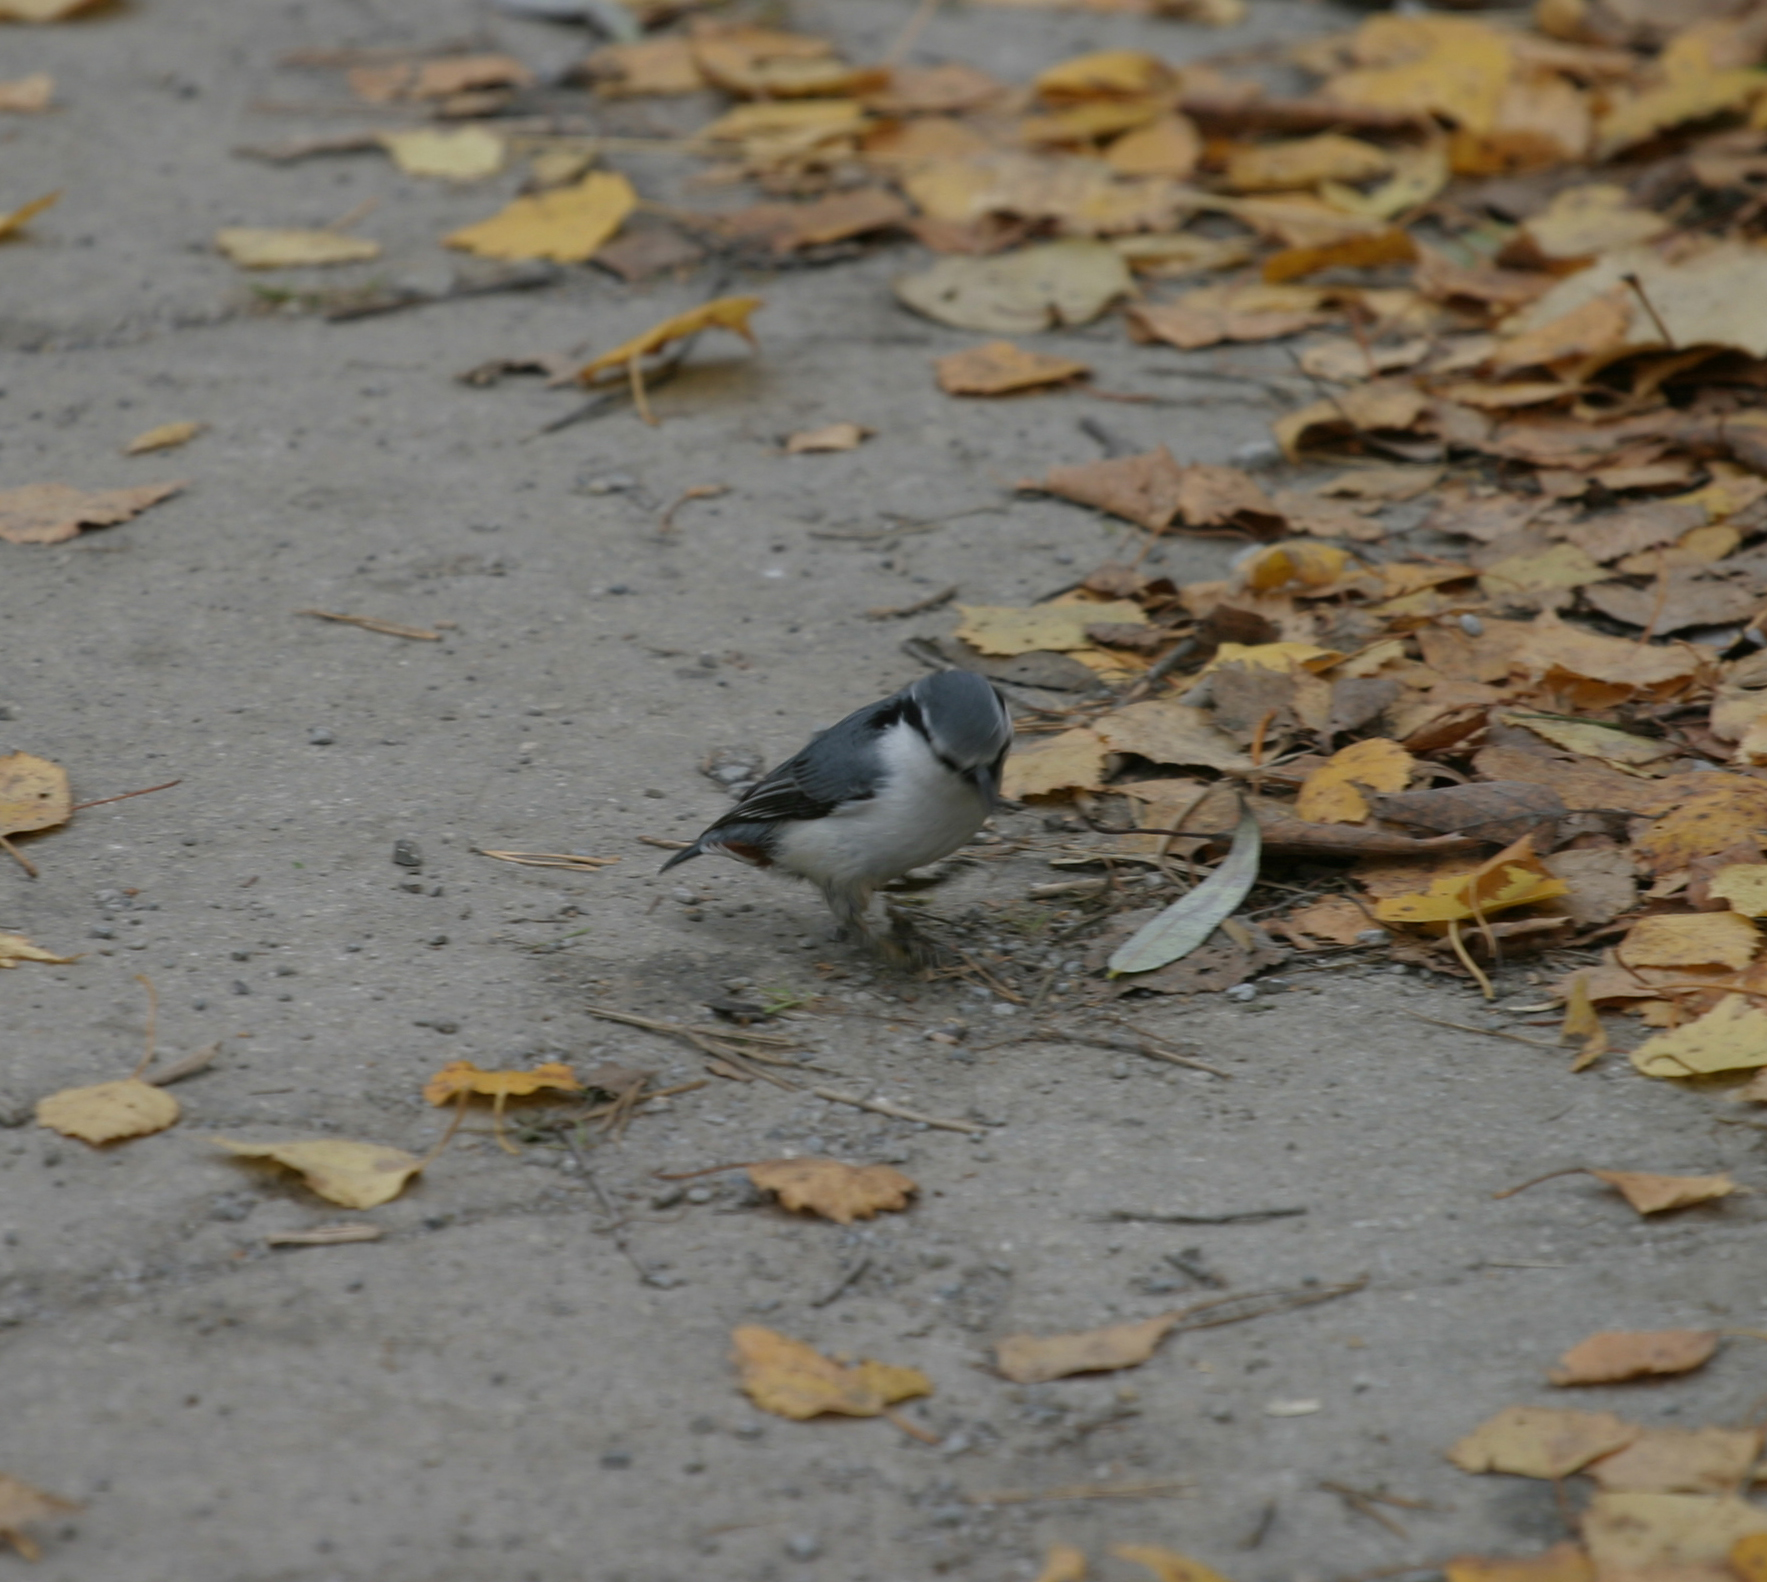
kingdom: Animalia
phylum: Chordata
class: Aves
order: Passeriformes
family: Sittidae
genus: Sitta
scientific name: Sitta europaea
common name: Eurasian nuthatch
